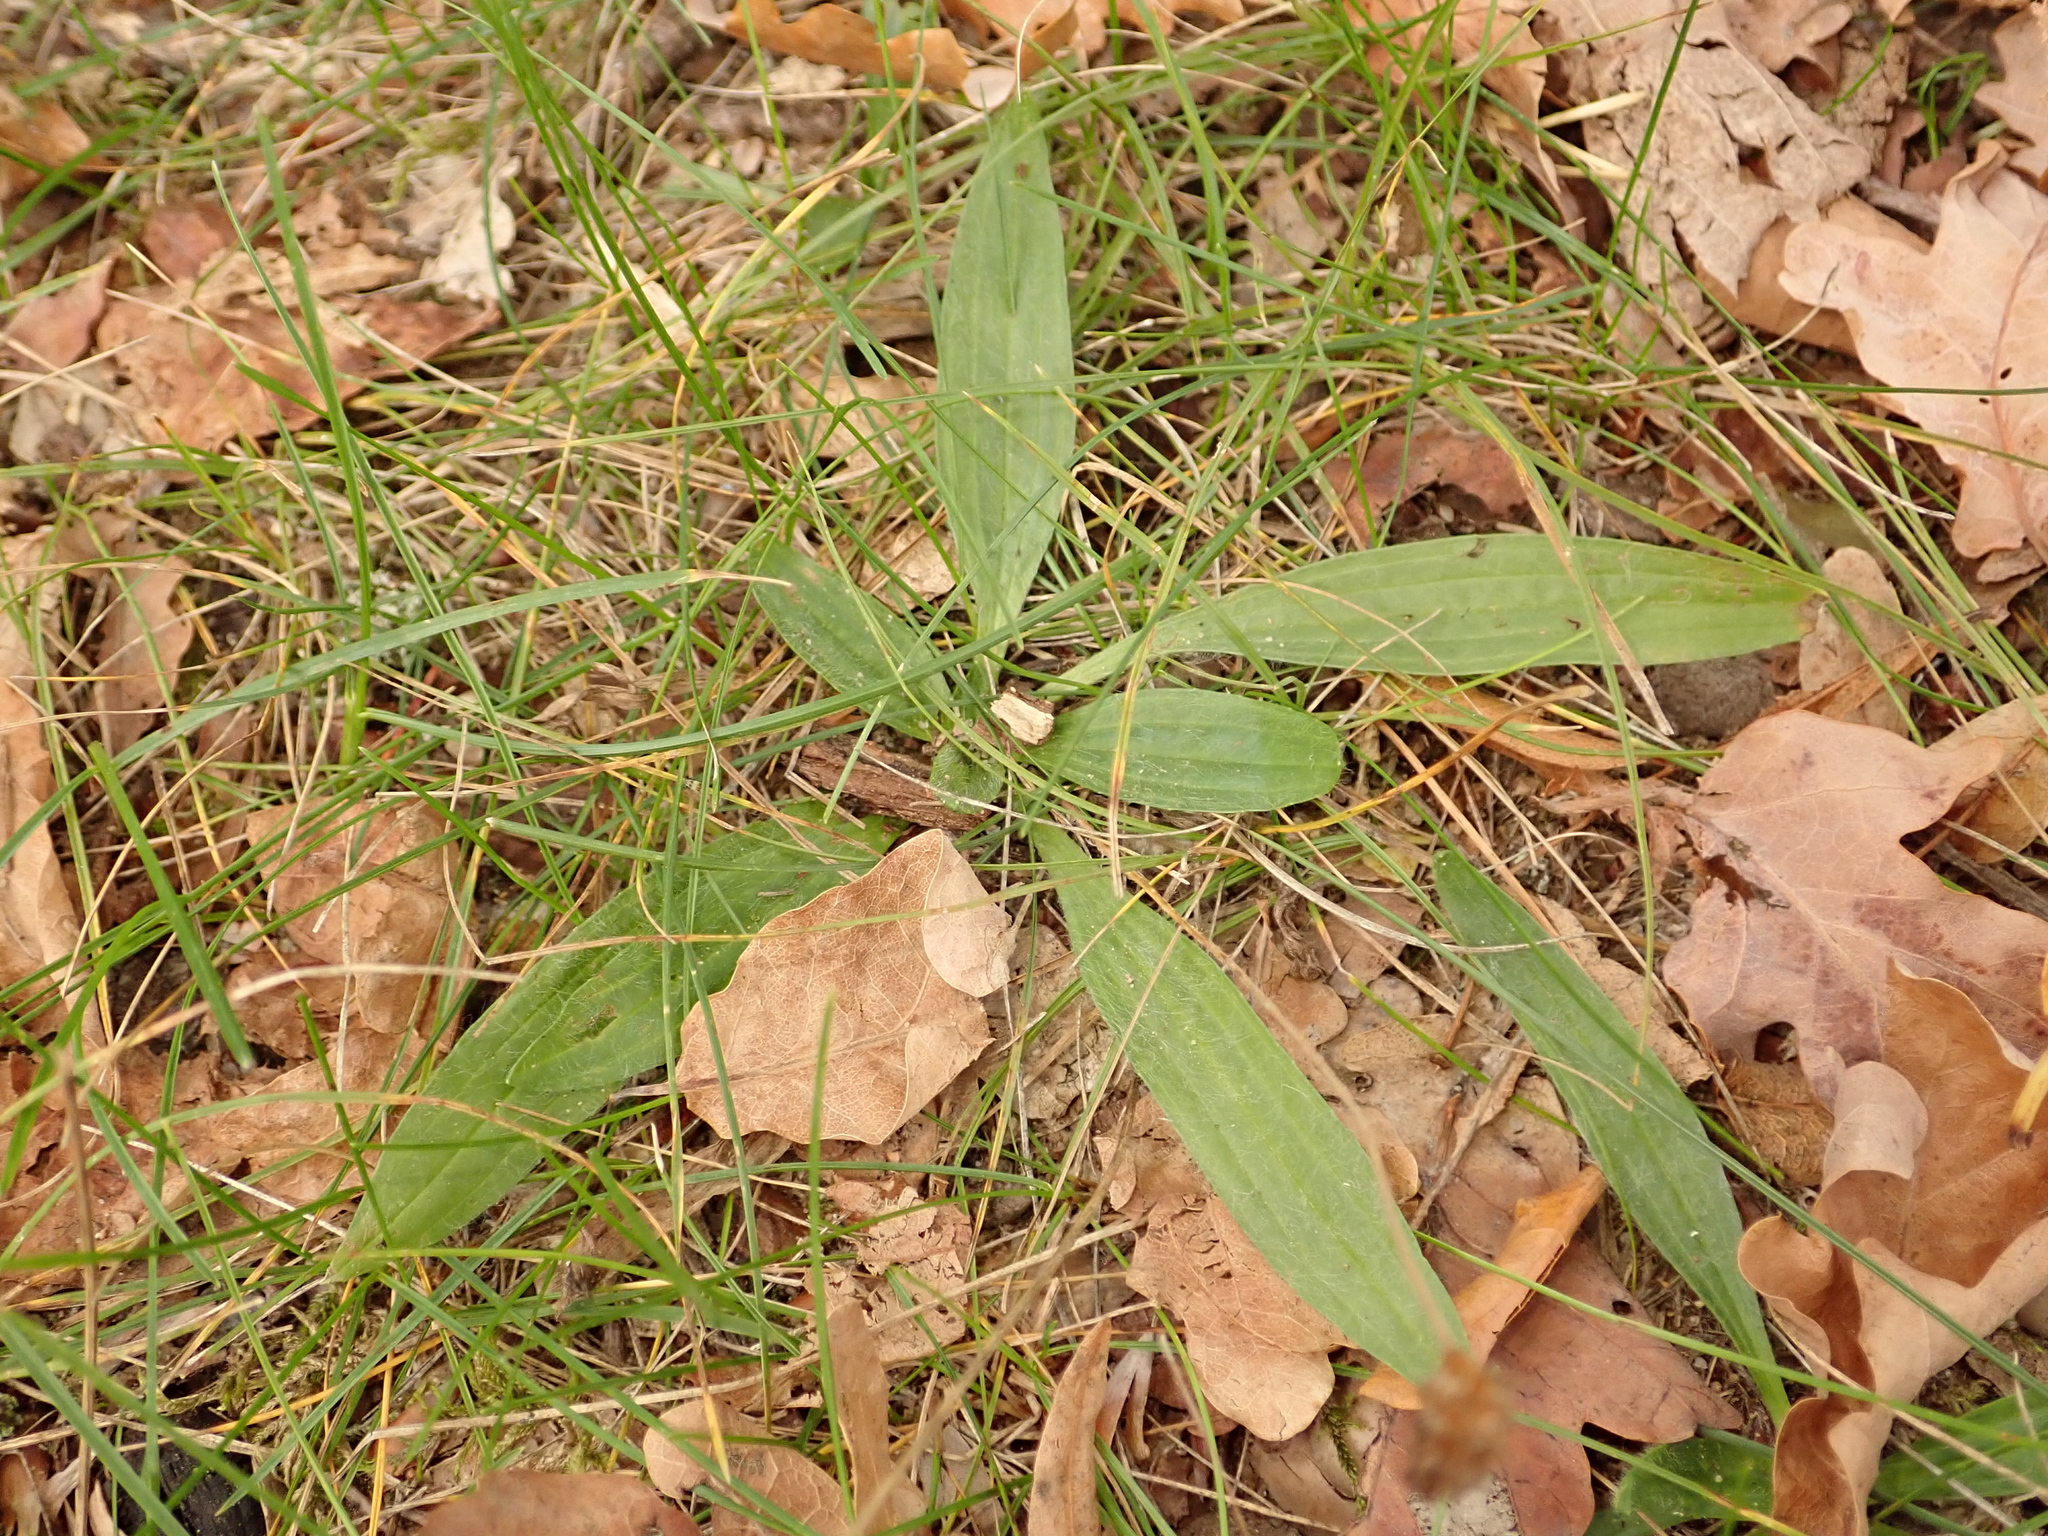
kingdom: Plantae
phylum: Tracheophyta
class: Magnoliopsida
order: Lamiales
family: Plantaginaceae
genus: Plantago
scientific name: Plantago lanceolata
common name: Ribwort plantain
